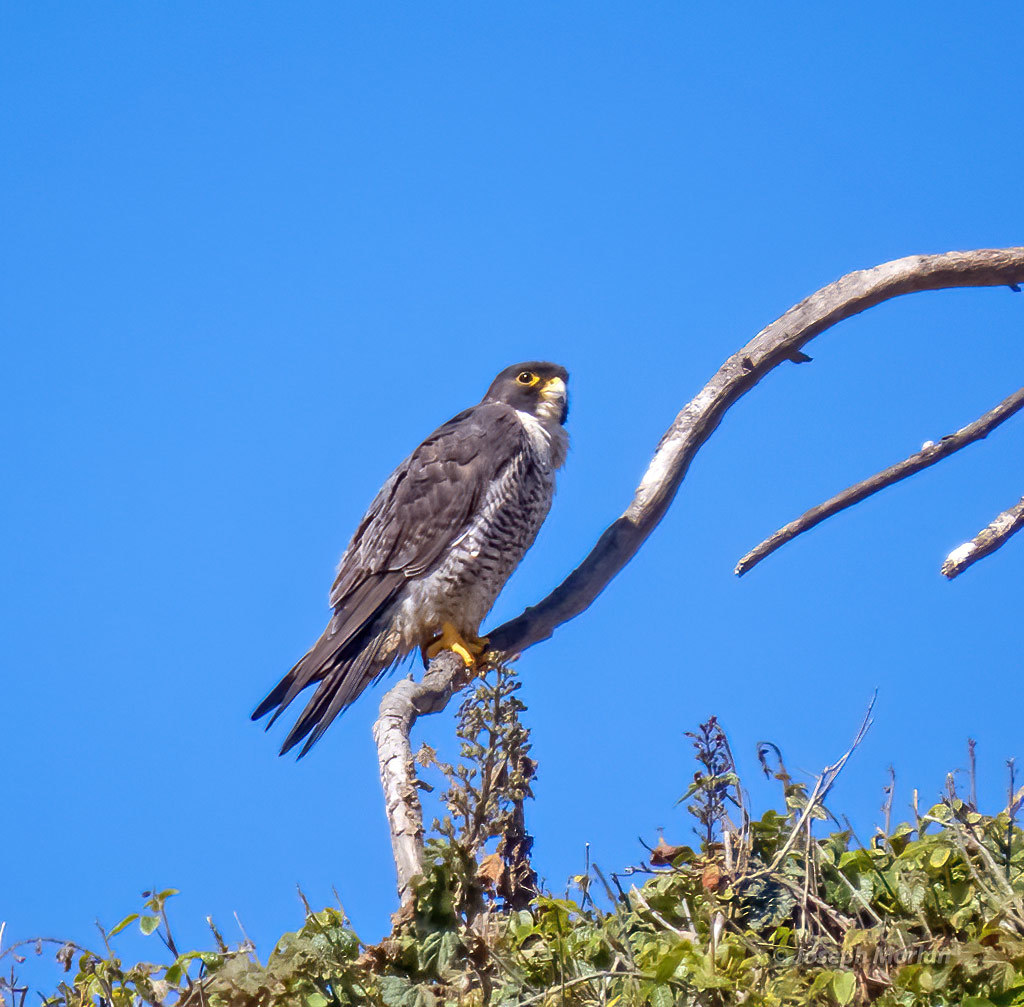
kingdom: Animalia
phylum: Chordata
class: Aves
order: Falconiformes
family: Falconidae
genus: Falco
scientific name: Falco peregrinus
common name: Peregrine falcon
